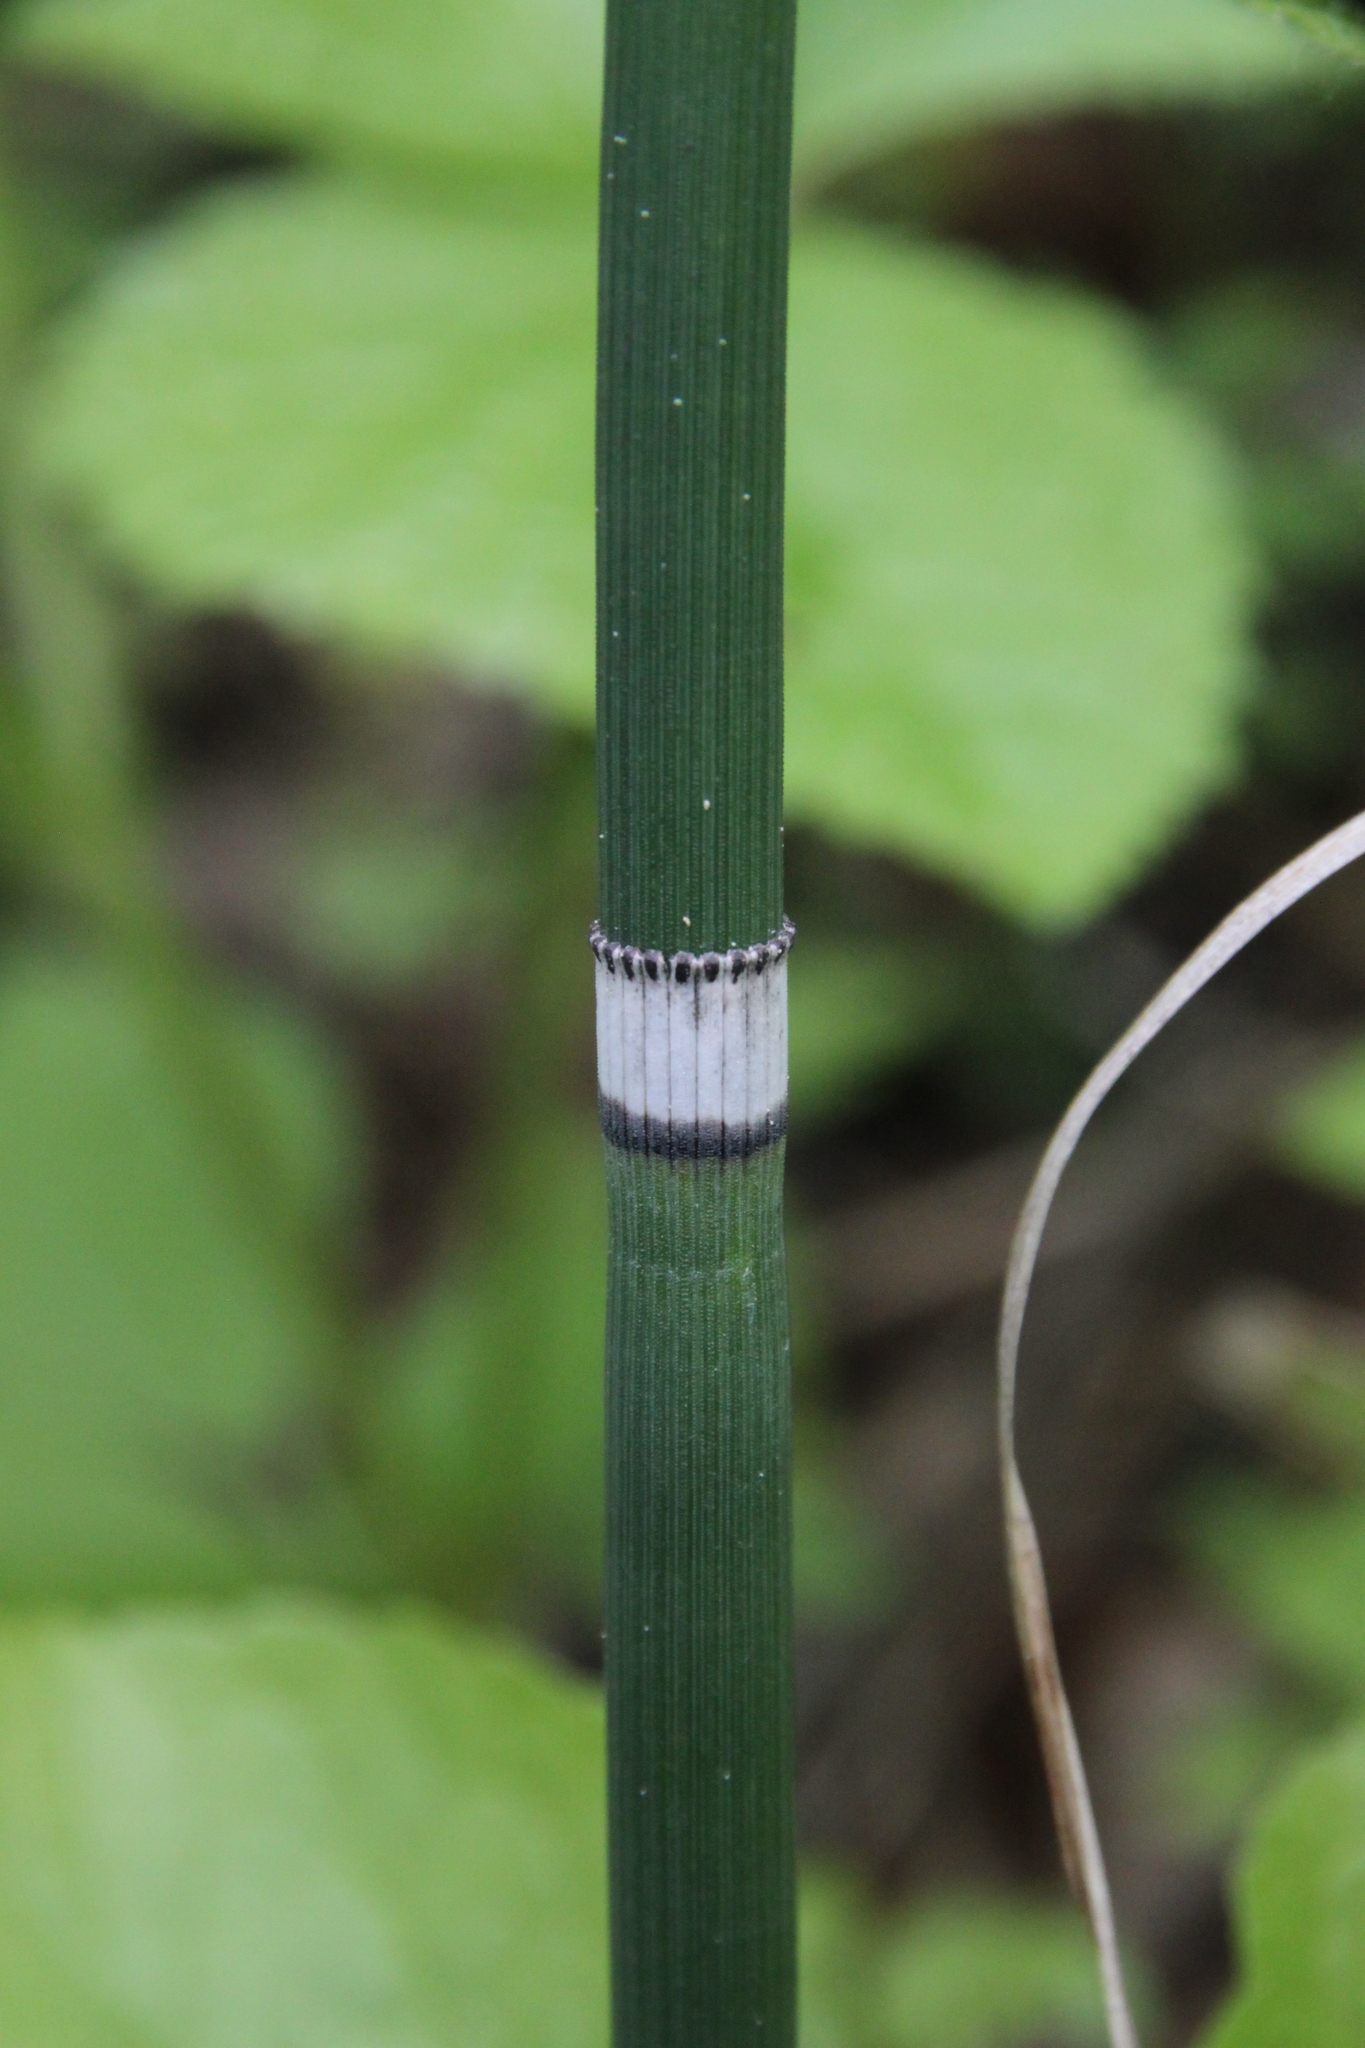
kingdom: Plantae
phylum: Tracheophyta
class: Polypodiopsida
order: Equisetales
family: Equisetaceae
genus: Equisetum
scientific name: Equisetum hyemale
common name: Rough horsetail
